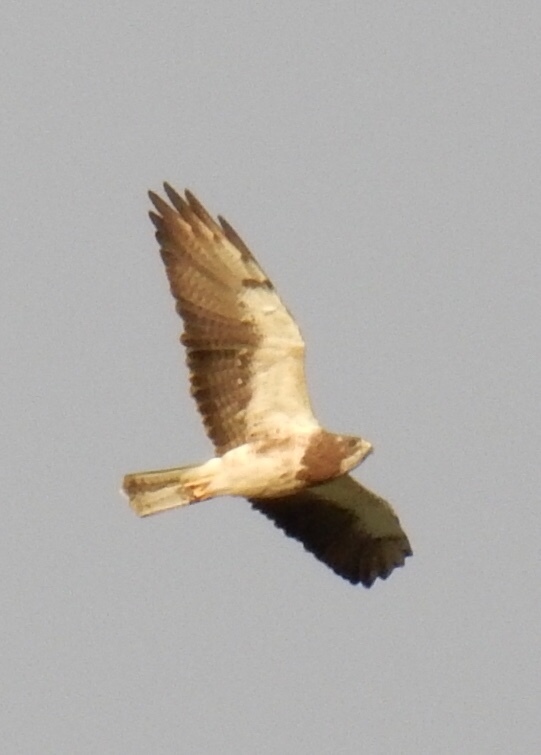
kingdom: Animalia
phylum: Chordata
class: Aves
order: Accipitriformes
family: Accipitridae
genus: Buteo
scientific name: Buteo swainsoni
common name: Swainson's hawk
